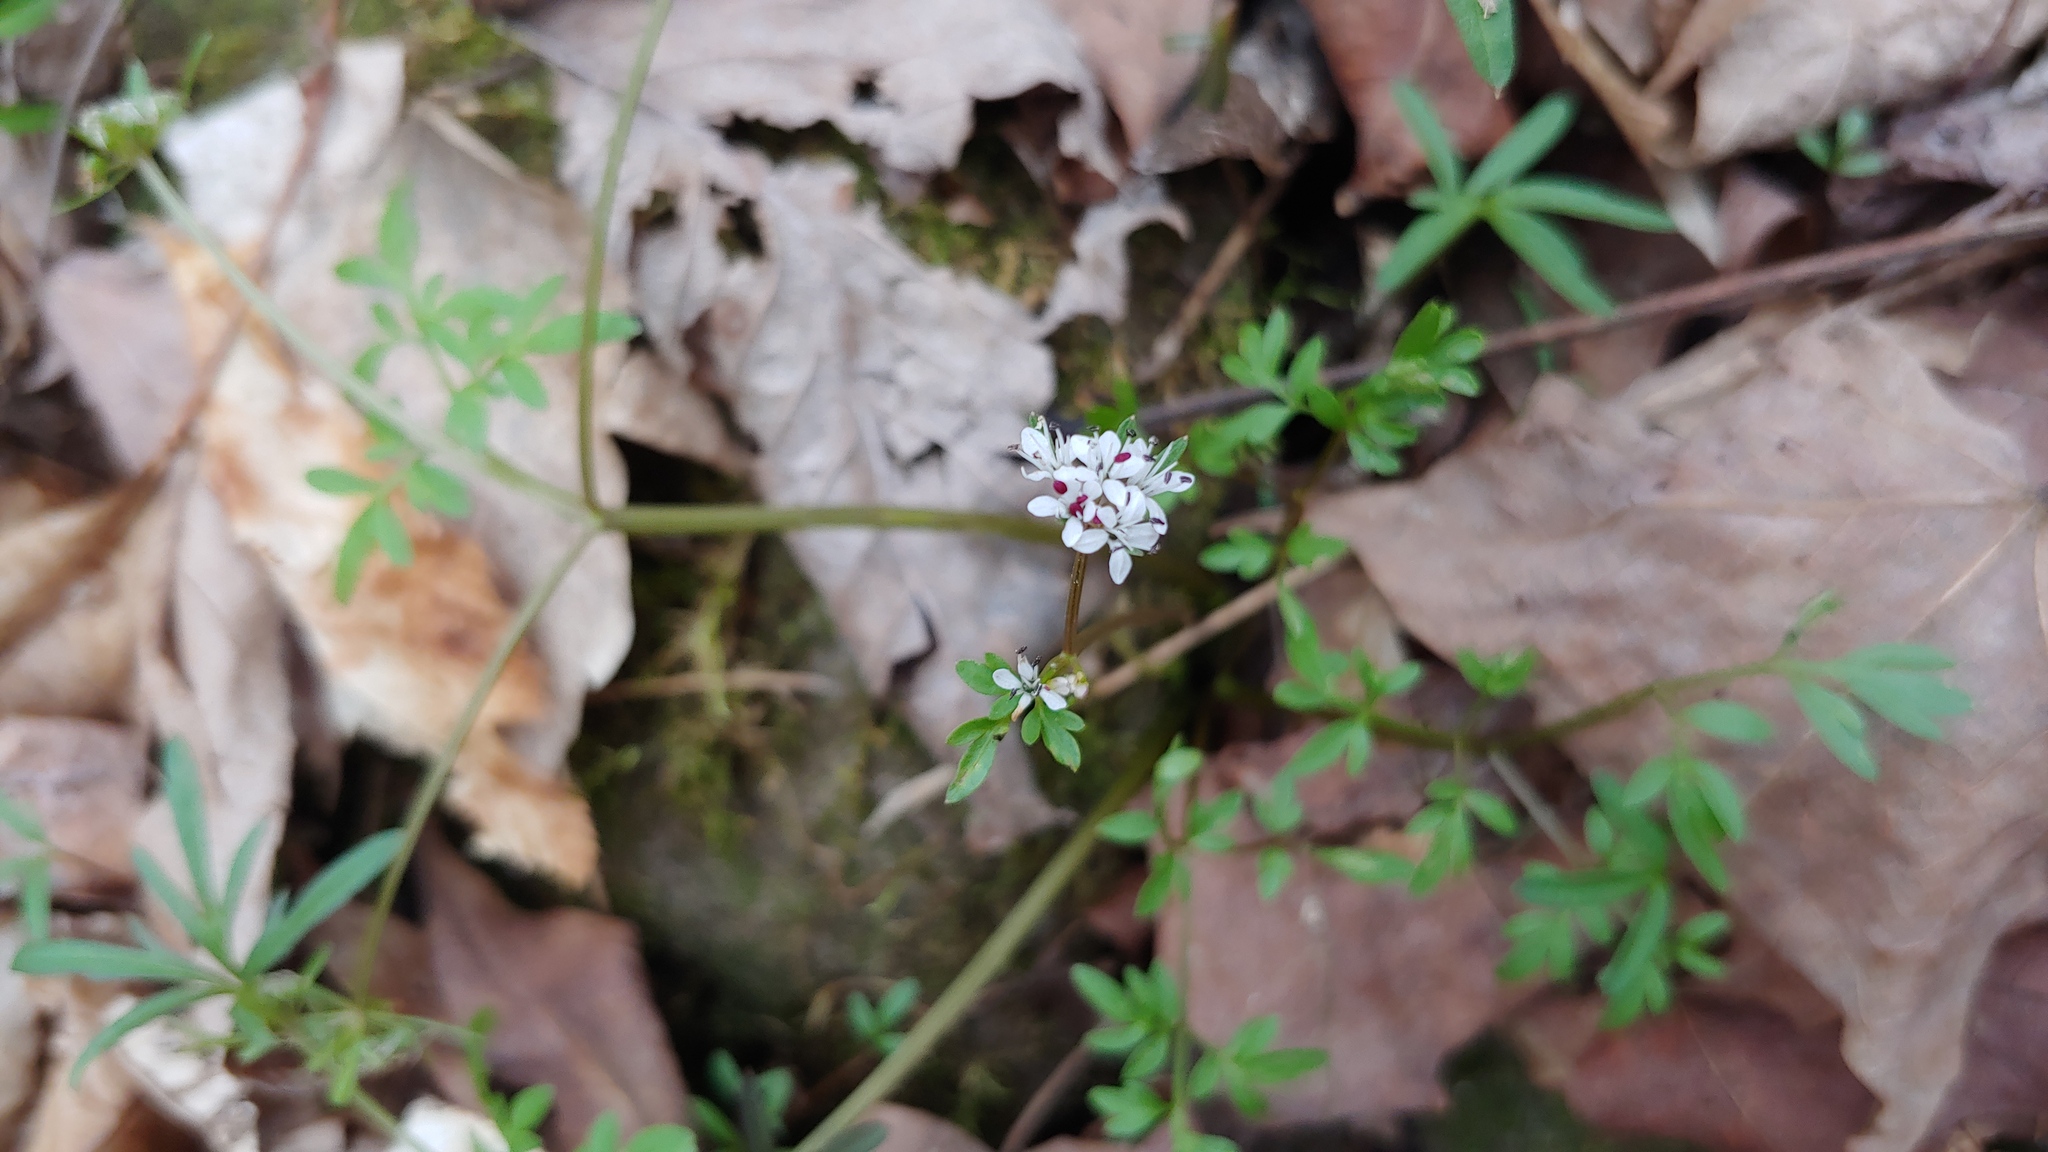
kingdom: Plantae
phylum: Tracheophyta
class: Magnoliopsida
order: Apiales
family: Apiaceae
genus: Erigenia
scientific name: Erigenia bulbosa
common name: Pepper-and-salt
